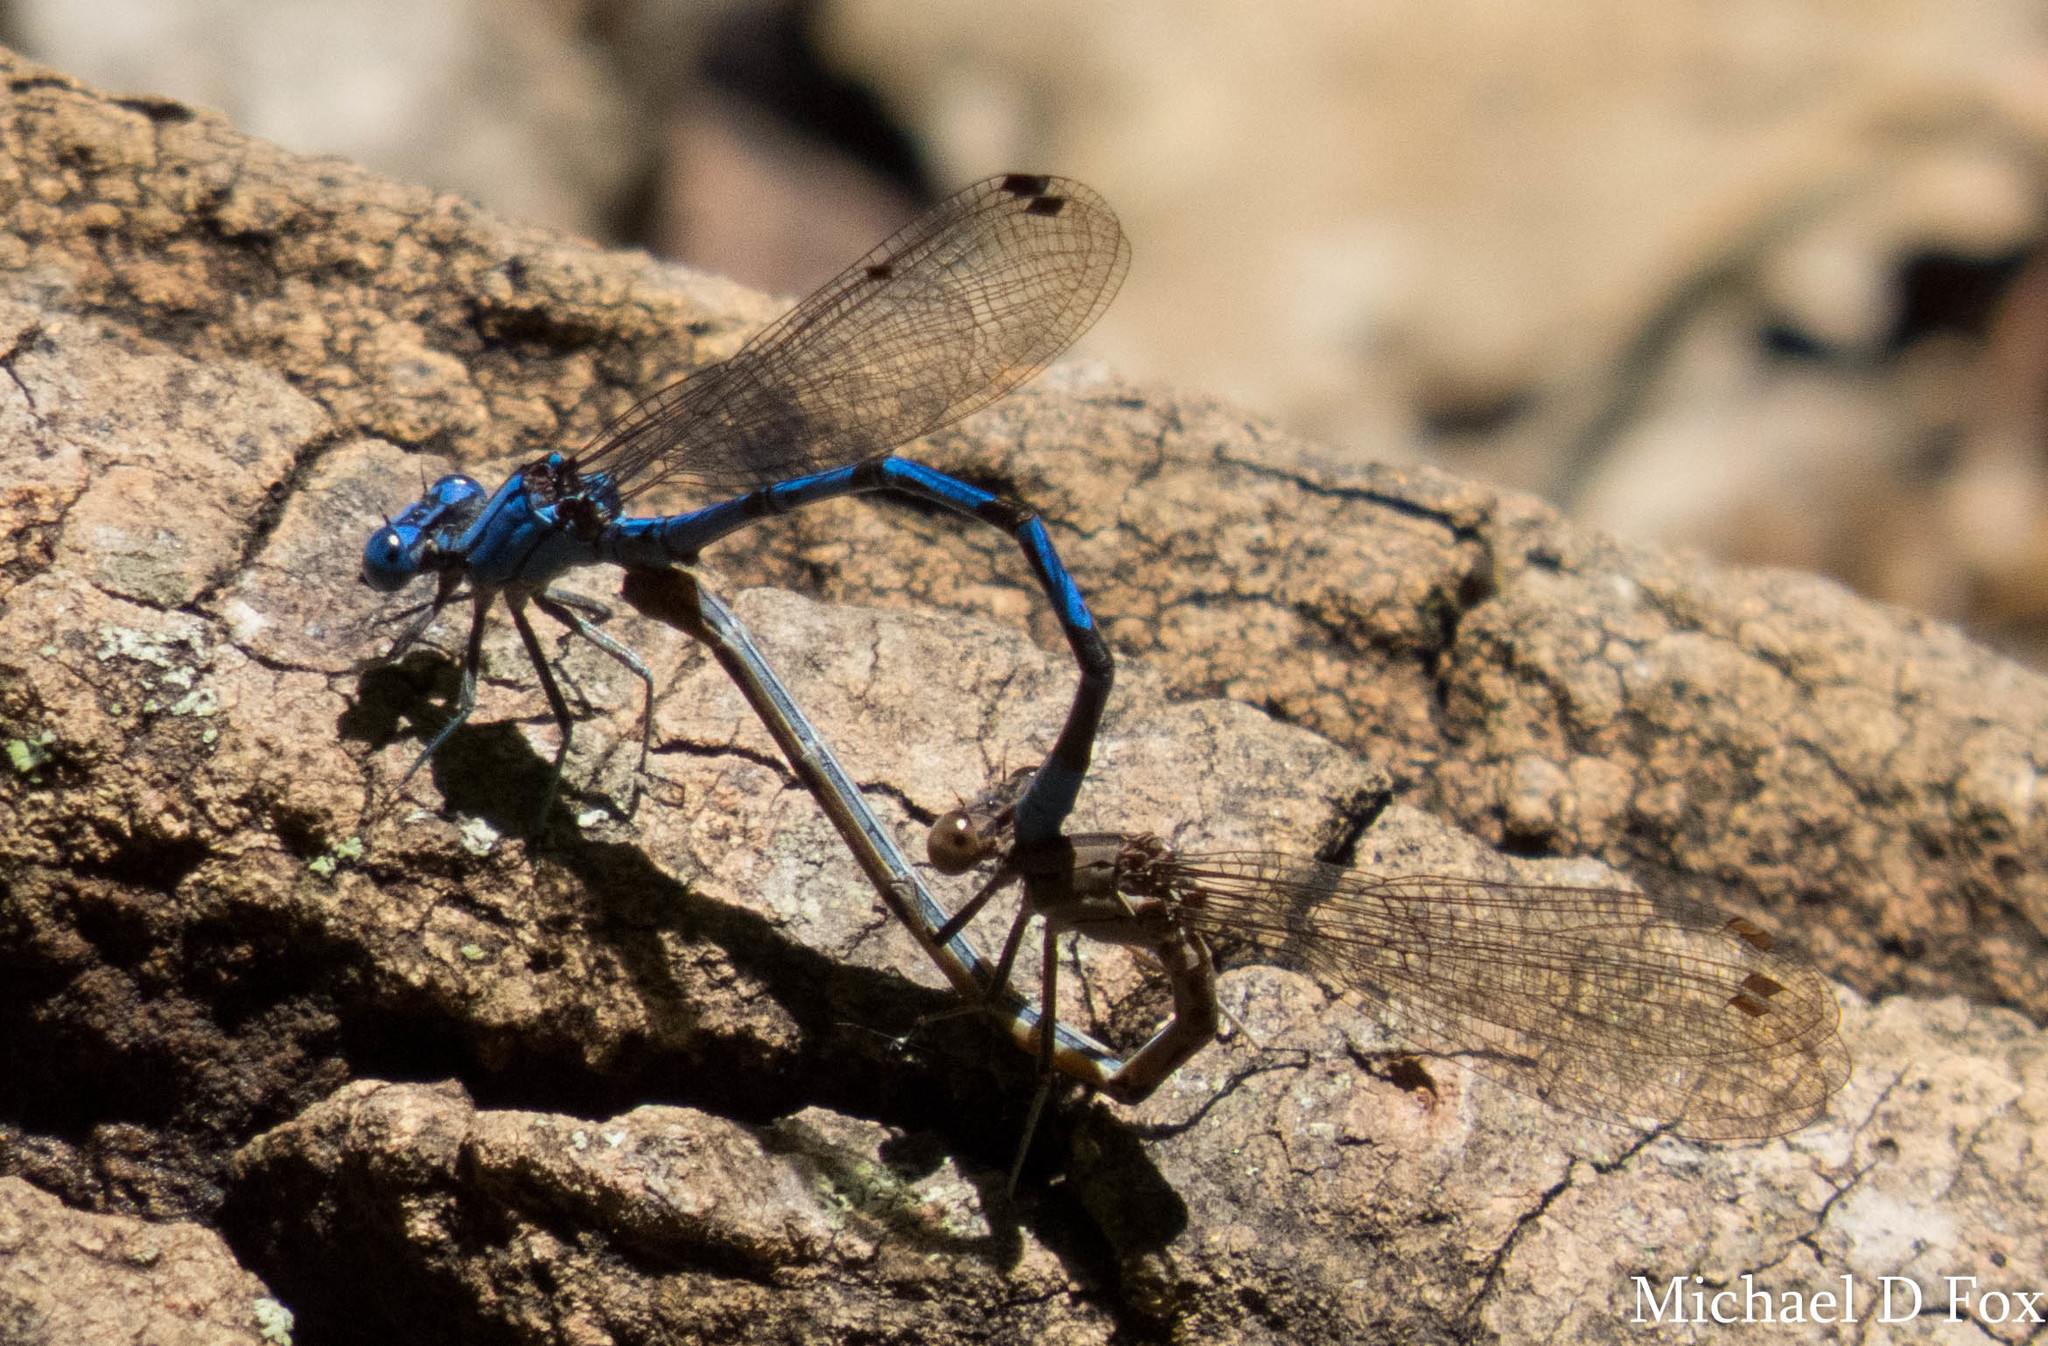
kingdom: Animalia
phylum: Arthropoda
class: Insecta
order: Odonata
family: Coenagrionidae
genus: Argia
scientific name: Argia funebris
